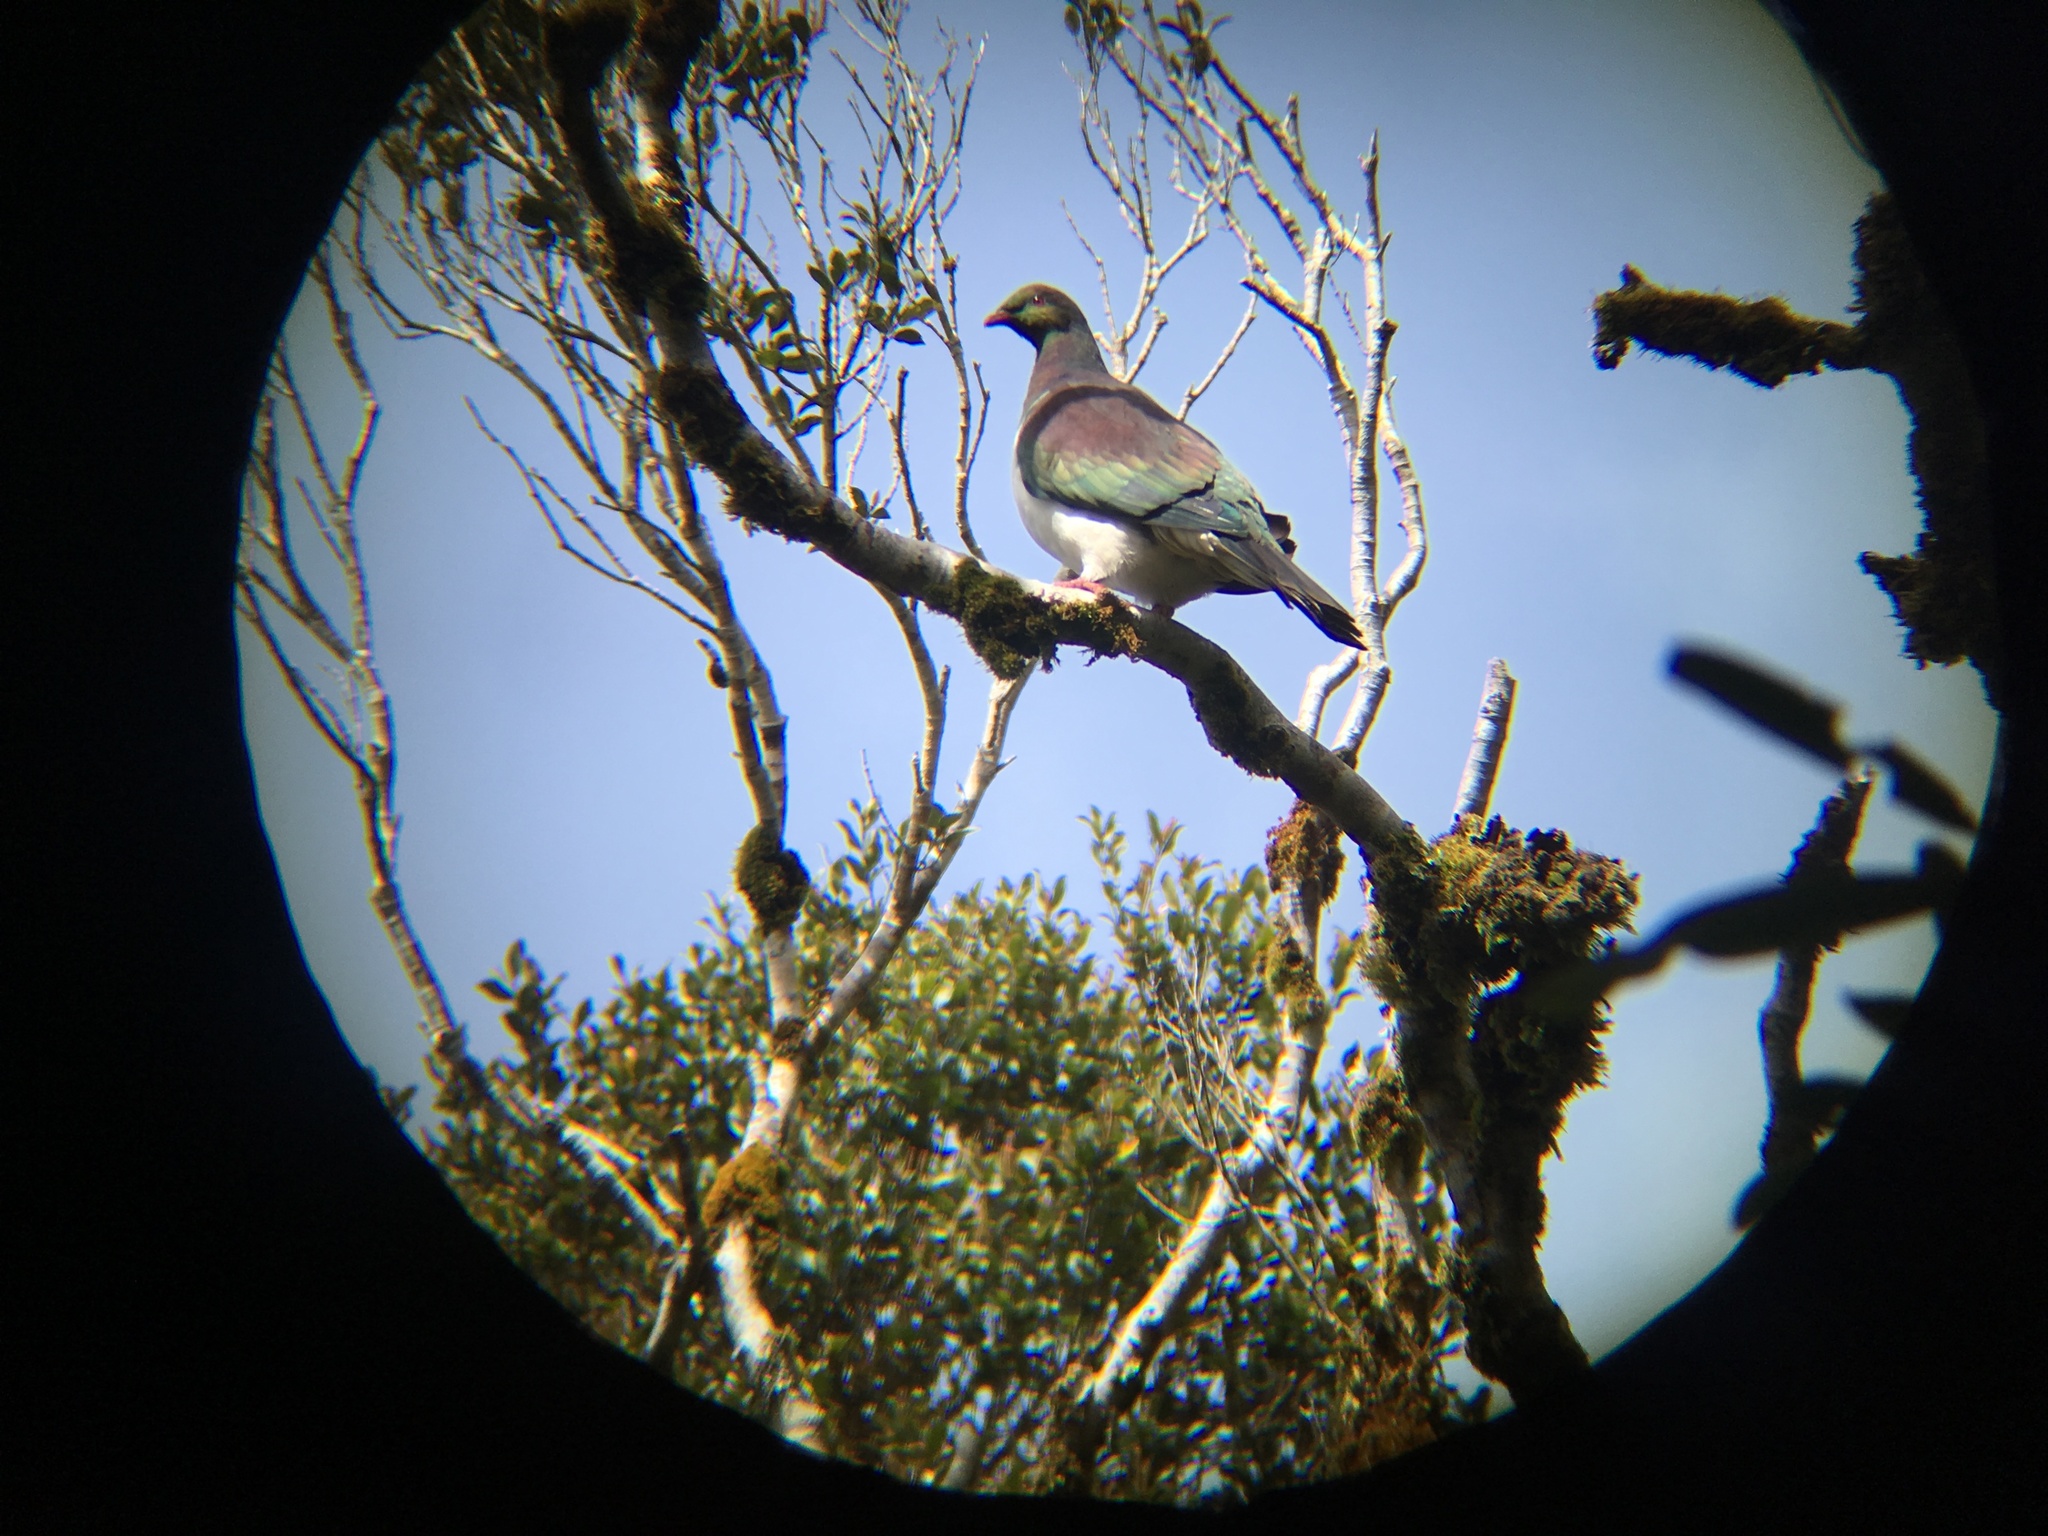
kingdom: Animalia
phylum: Chordata
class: Aves
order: Columbiformes
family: Columbidae
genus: Hemiphaga
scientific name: Hemiphaga novaeseelandiae
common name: New zealand pigeon
